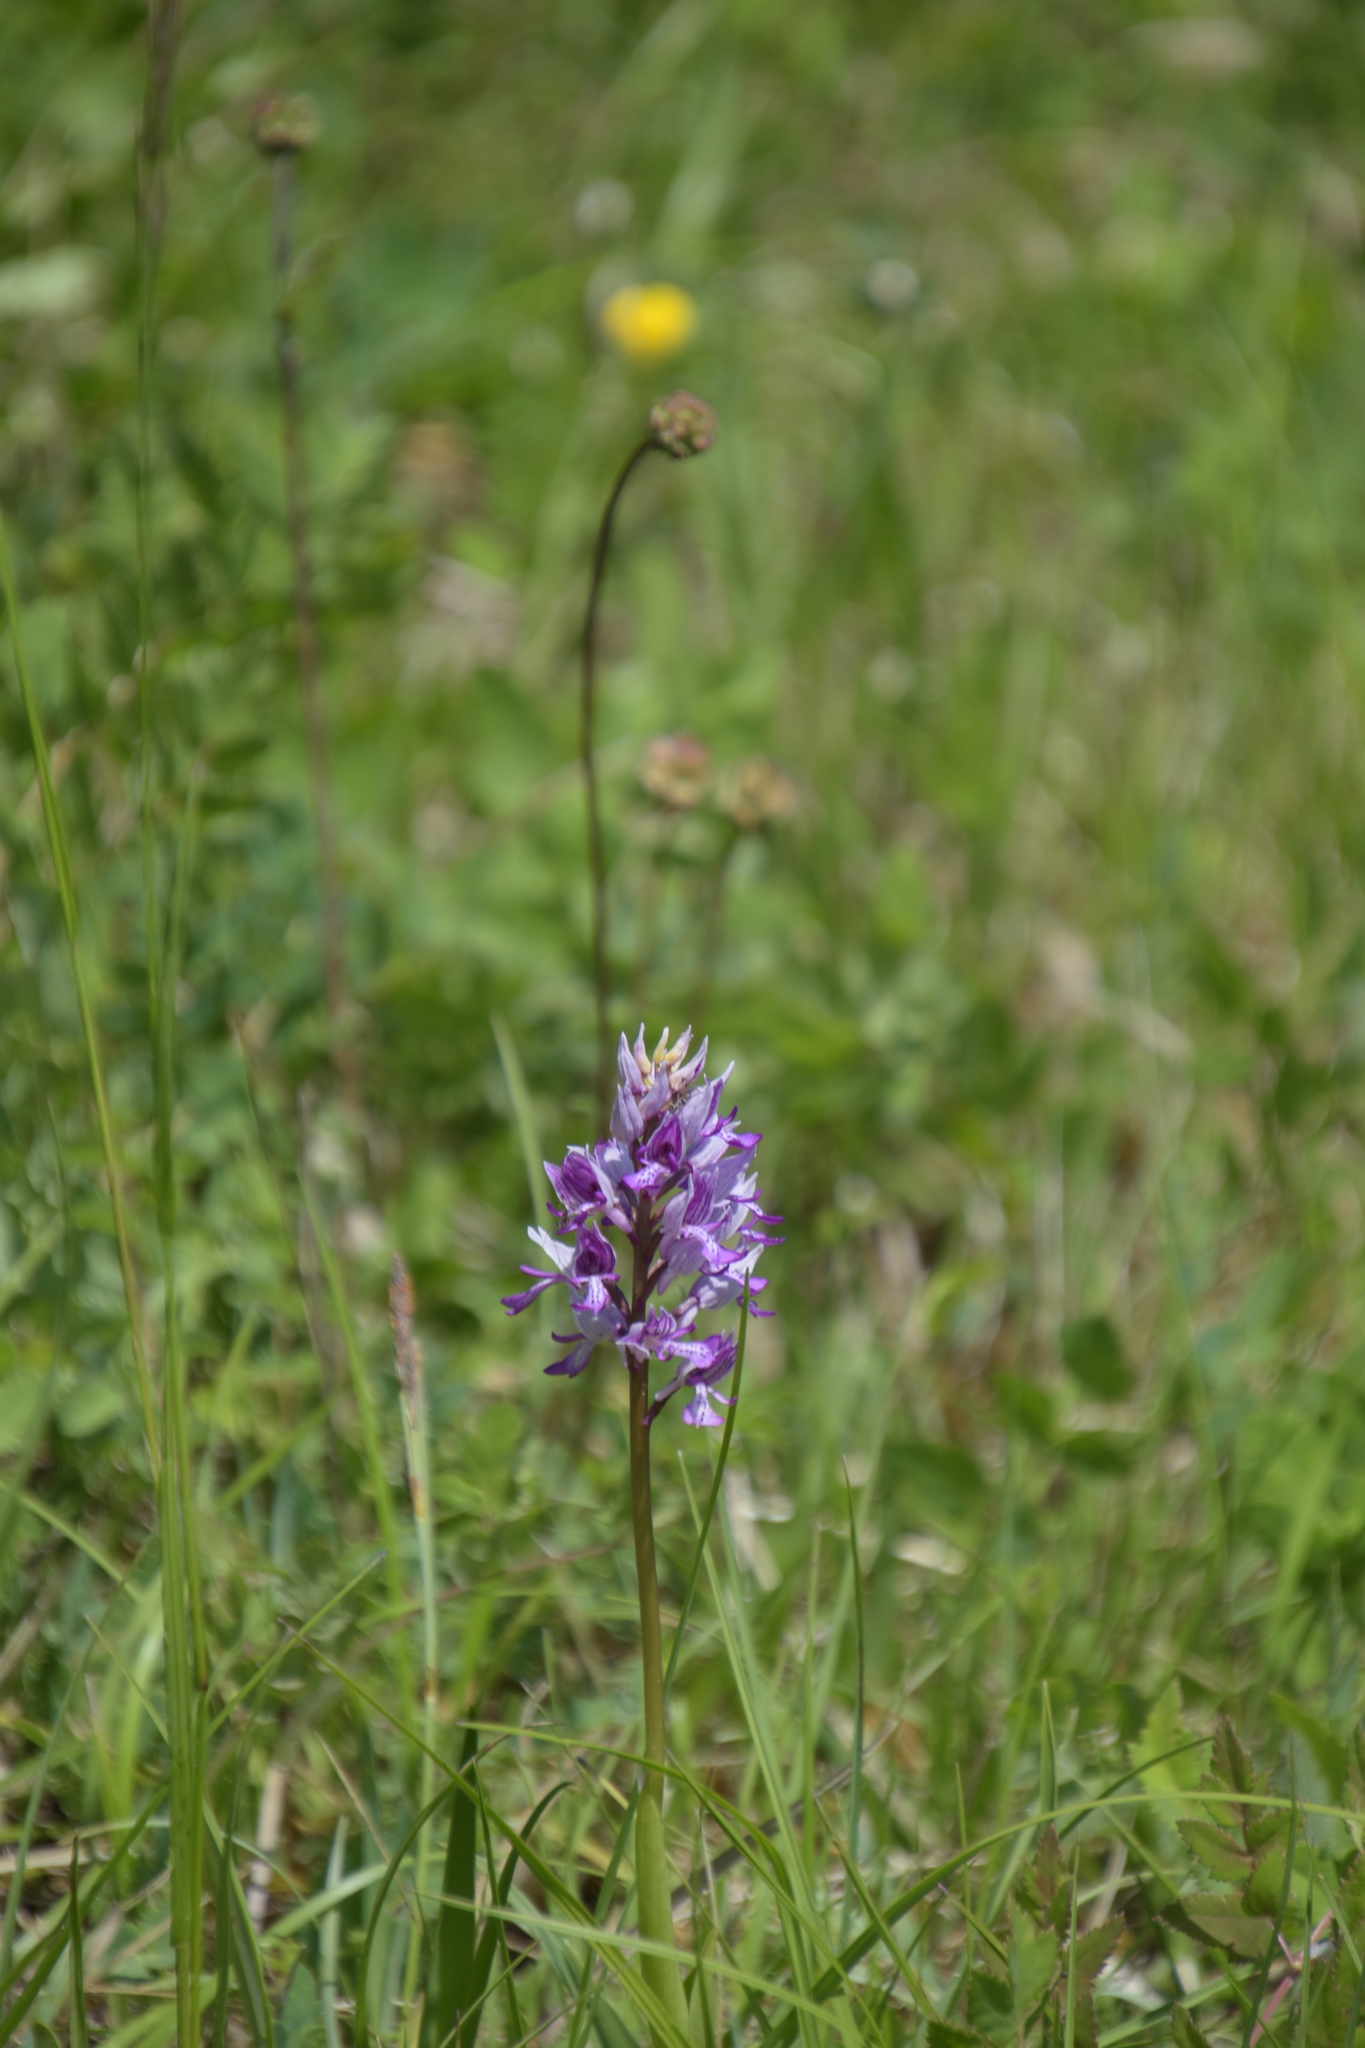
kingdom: Plantae
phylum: Tracheophyta
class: Liliopsida
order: Asparagales
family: Orchidaceae
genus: Orchis
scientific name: Orchis militaris
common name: Military orchid
